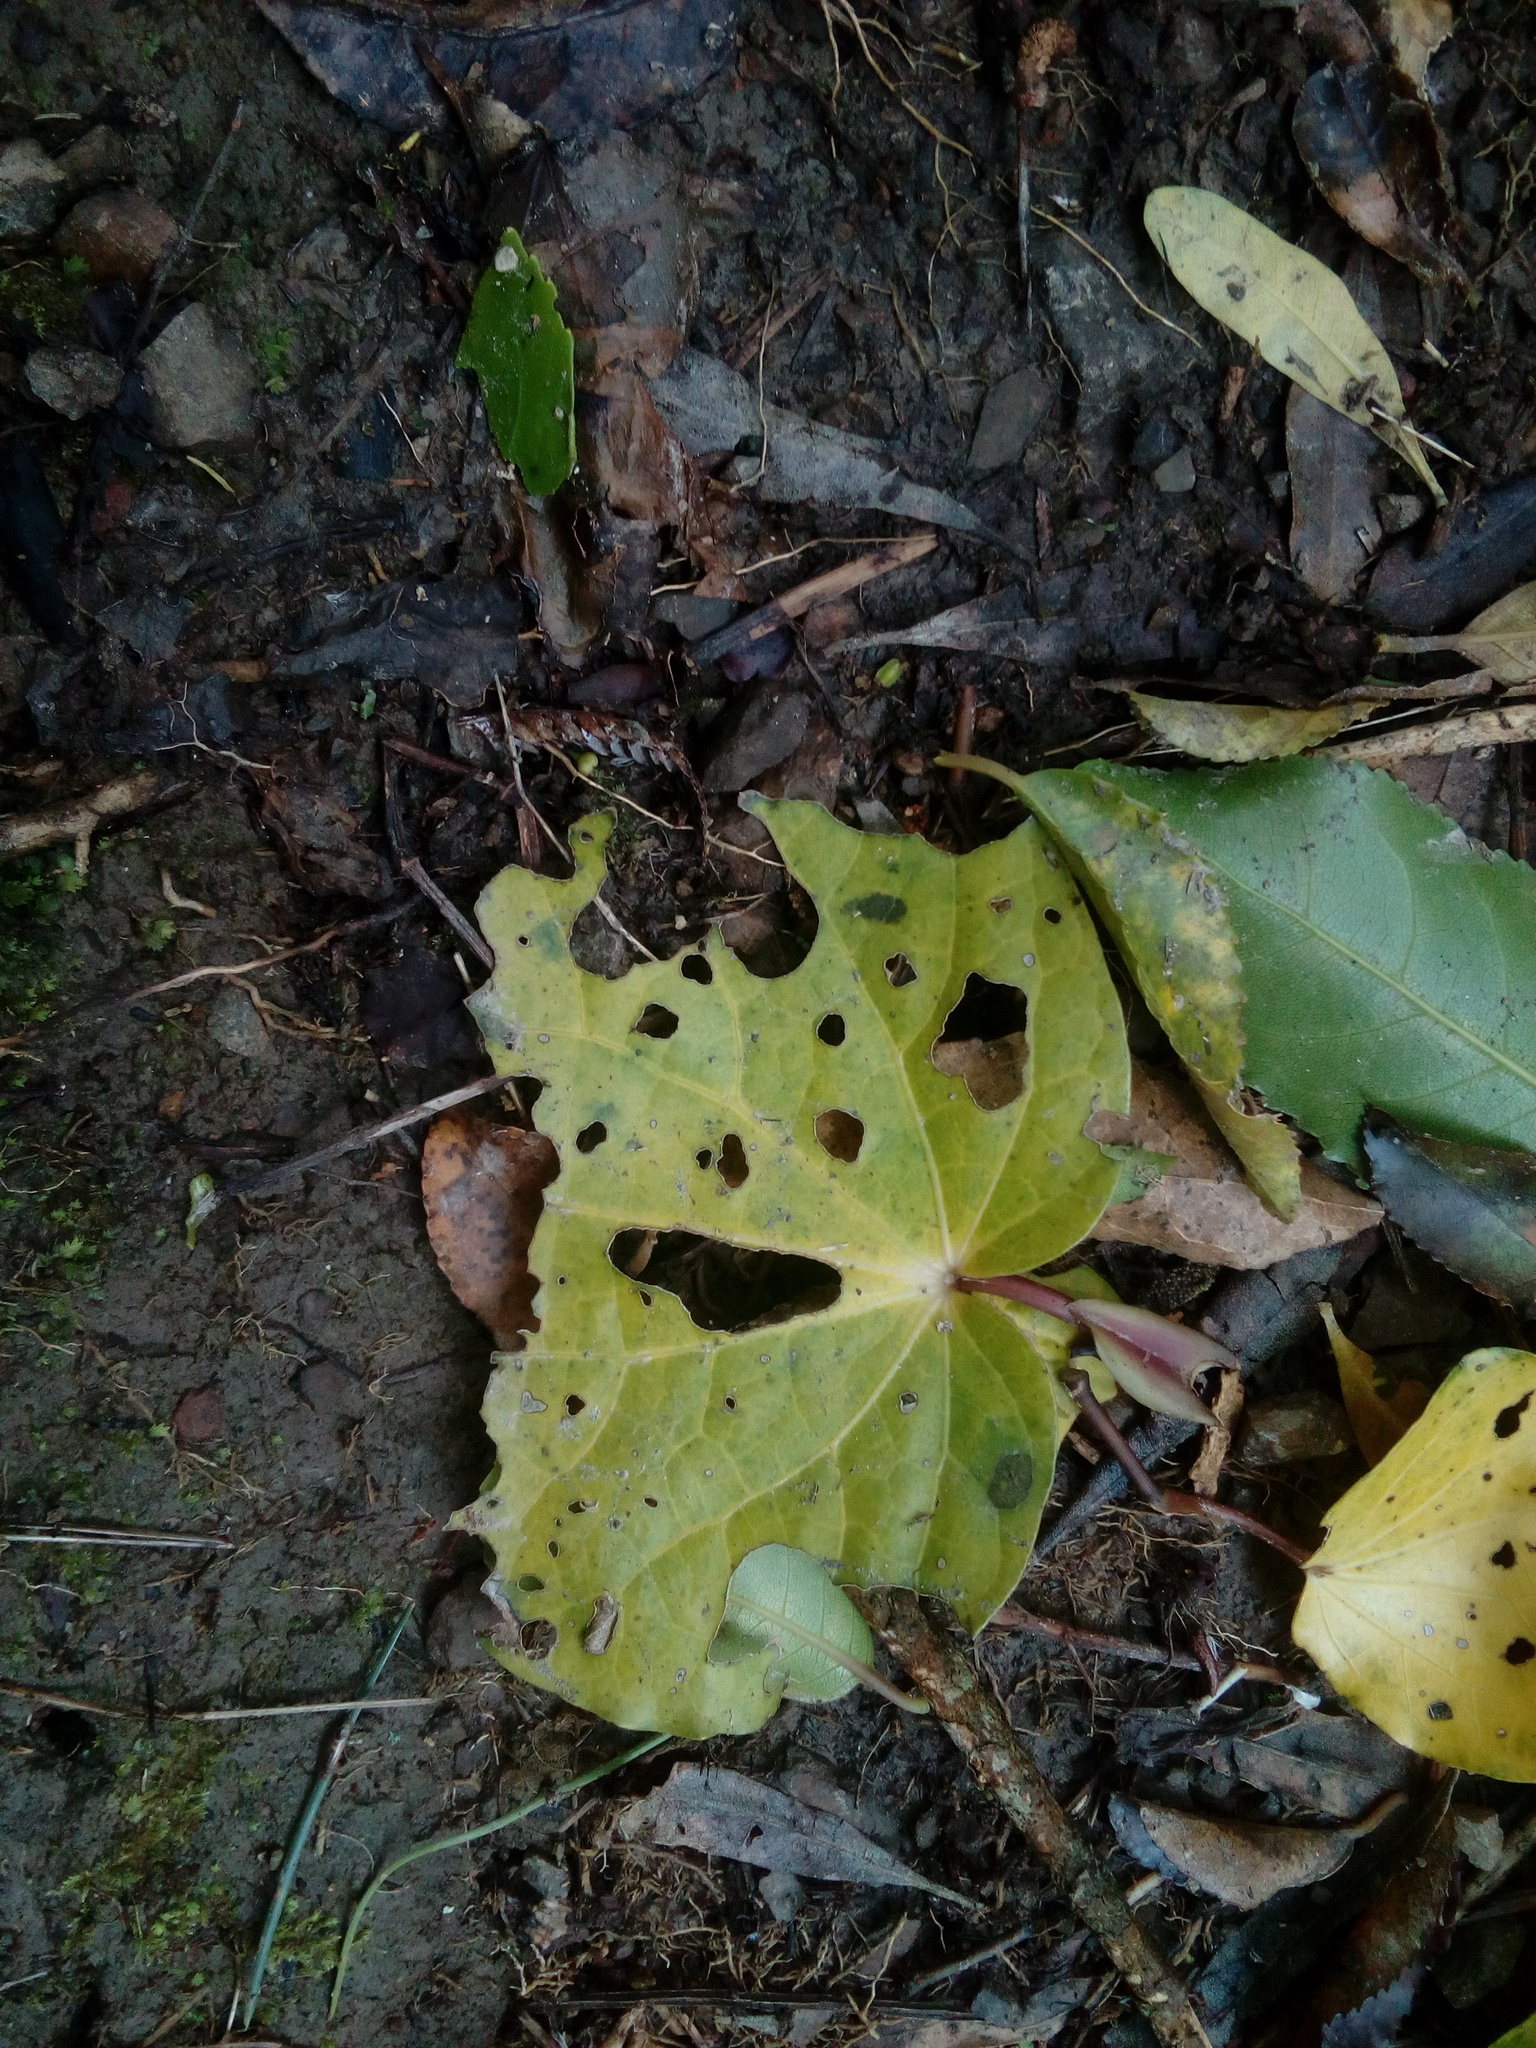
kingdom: Plantae
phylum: Tracheophyta
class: Magnoliopsida
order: Piperales
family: Piperaceae
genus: Macropiper
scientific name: Macropiper excelsum
